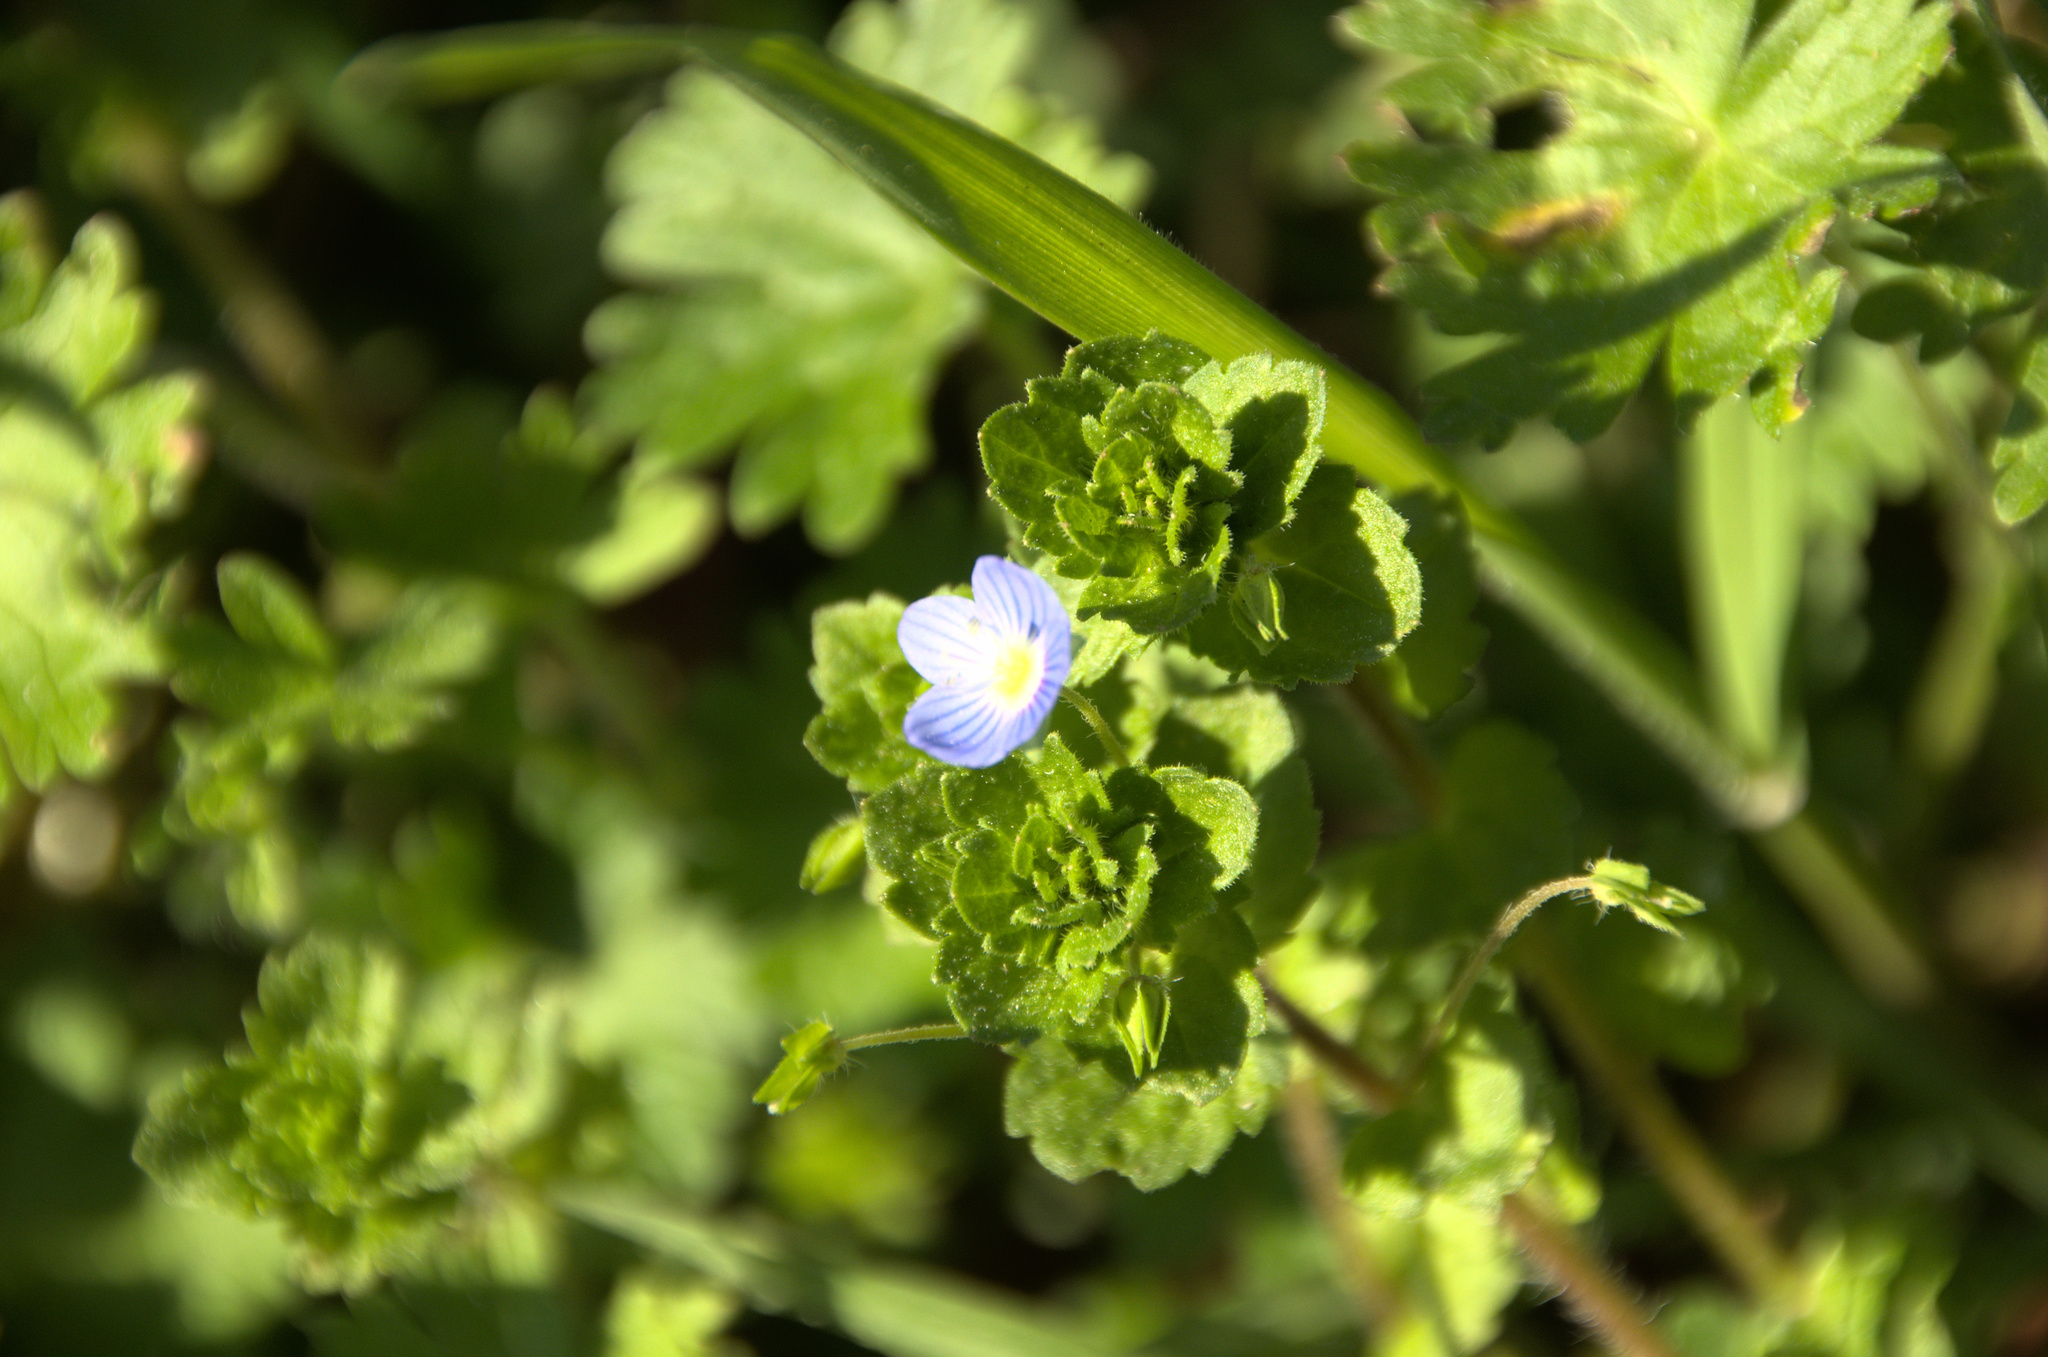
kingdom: Plantae
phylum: Tracheophyta
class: Magnoliopsida
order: Lamiales
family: Plantaginaceae
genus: Veronica
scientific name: Veronica persica
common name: Common field-speedwell
